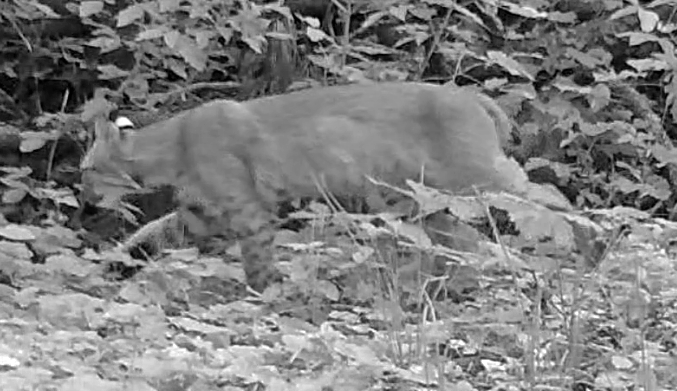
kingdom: Animalia
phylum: Chordata
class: Mammalia
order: Carnivora
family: Felidae
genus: Lynx
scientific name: Lynx rufus
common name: Bobcat
